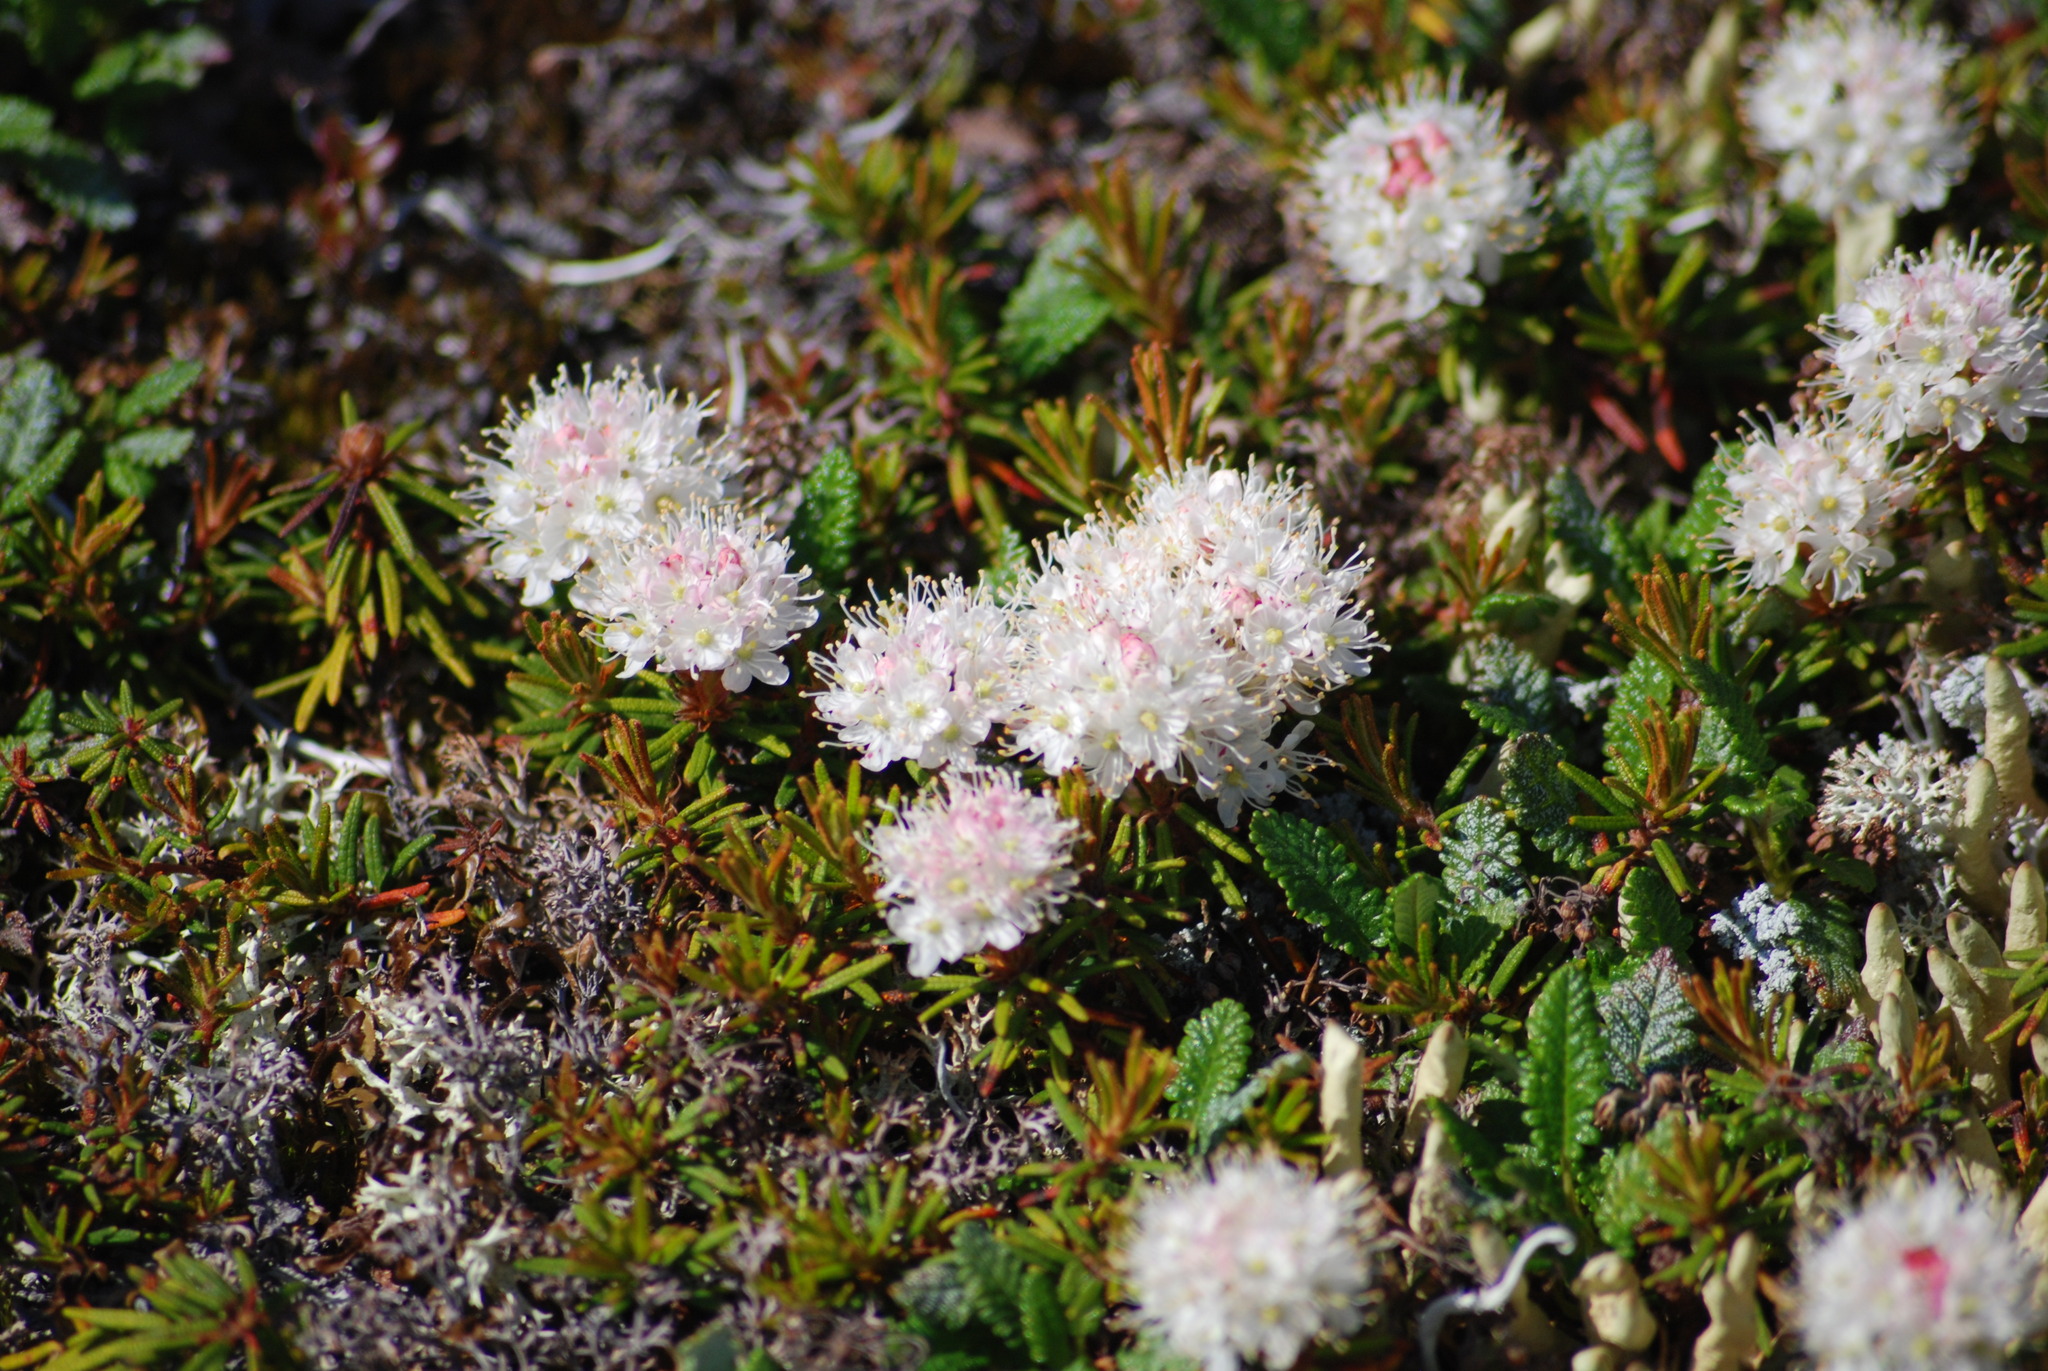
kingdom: Plantae
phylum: Tracheophyta
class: Magnoliopsida
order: Ericales
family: Ericaceae
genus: Rhododendron
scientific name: Rhododendron tomentosum
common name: Marsh labrador tea
